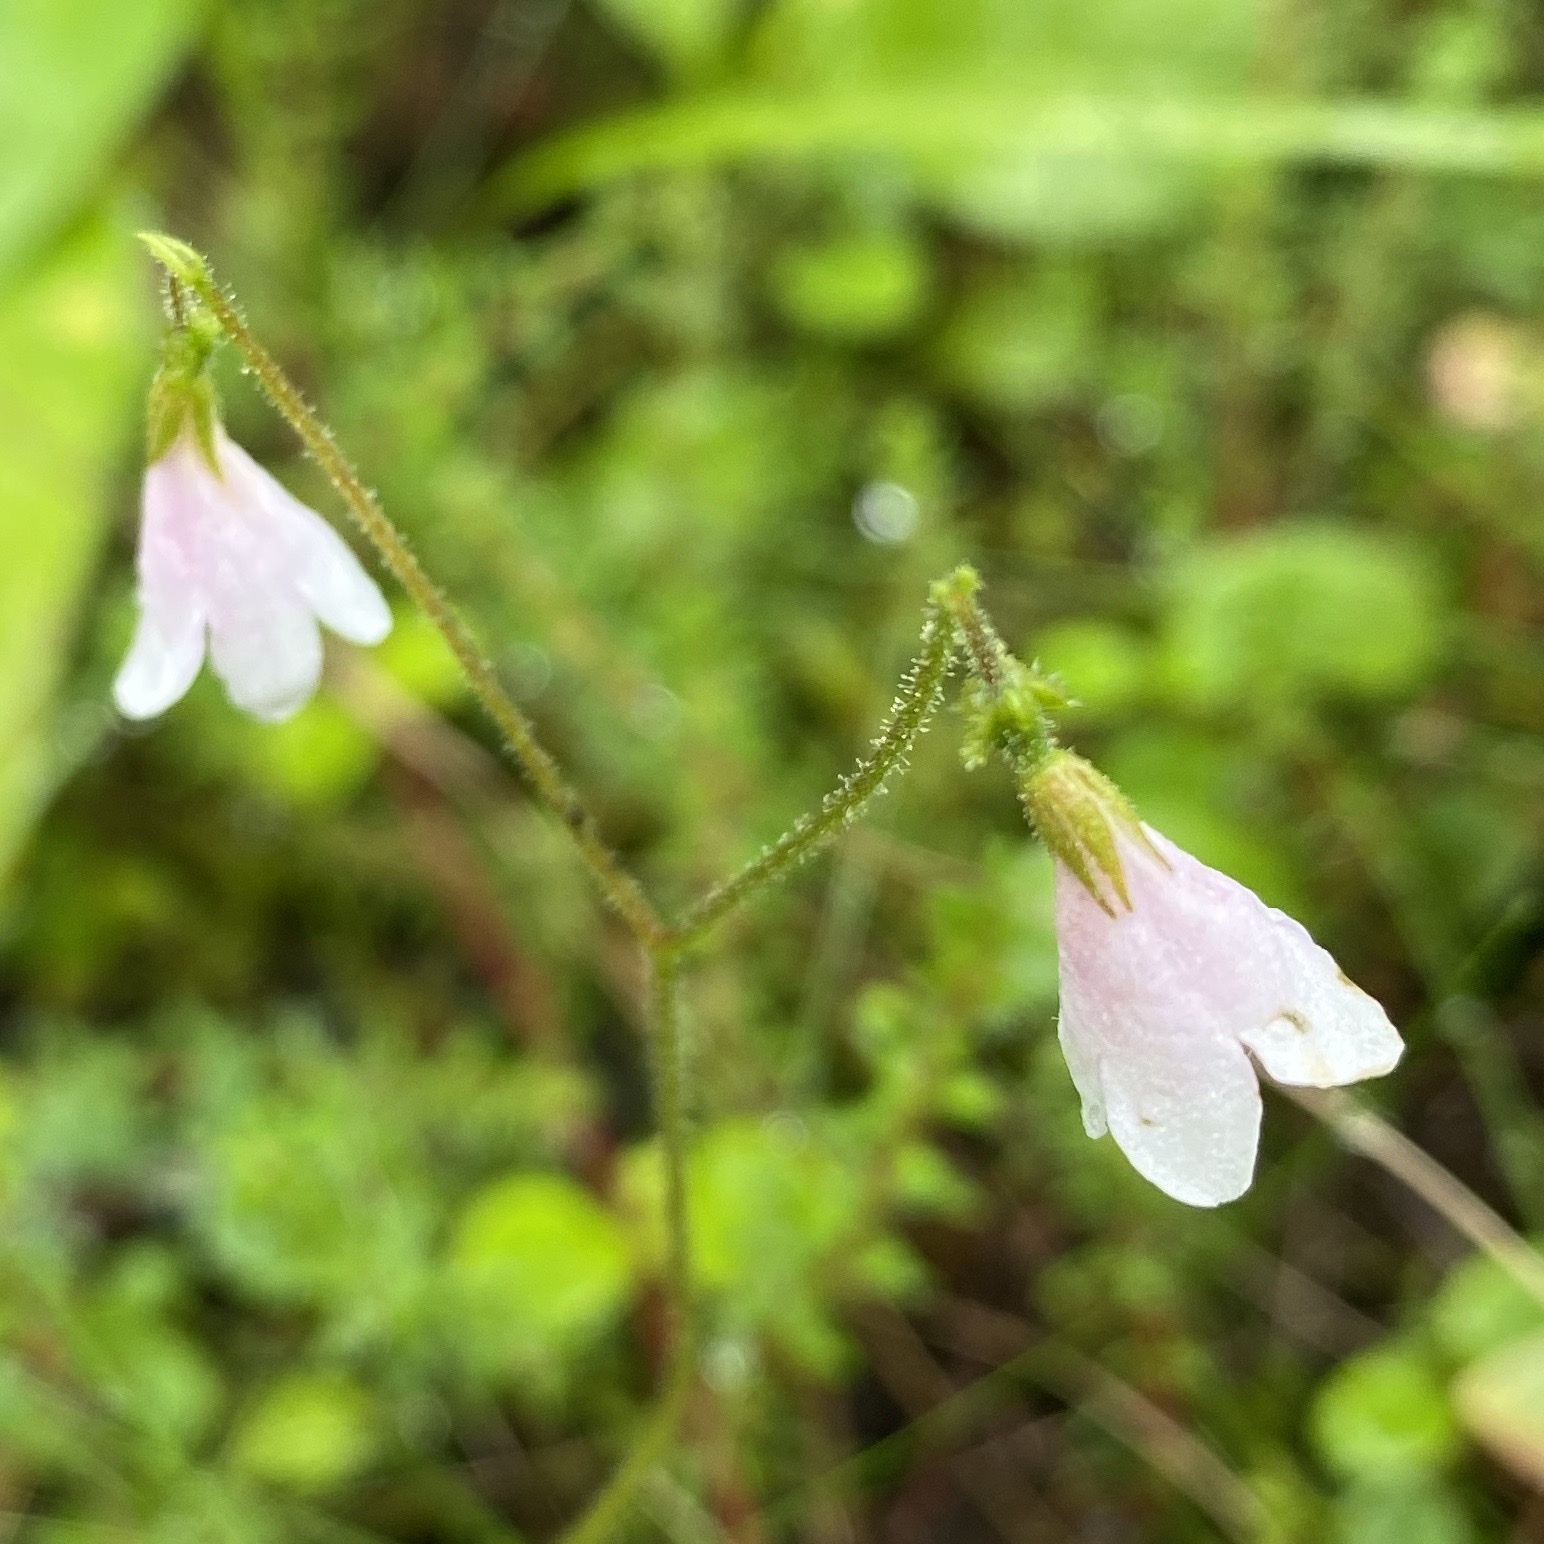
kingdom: Plantae
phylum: Tracheophyta
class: Magnoliopsida
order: Dipsacales
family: Caprifoliaceae
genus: Linnaea
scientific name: Linnaea borealis
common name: Twinflower
